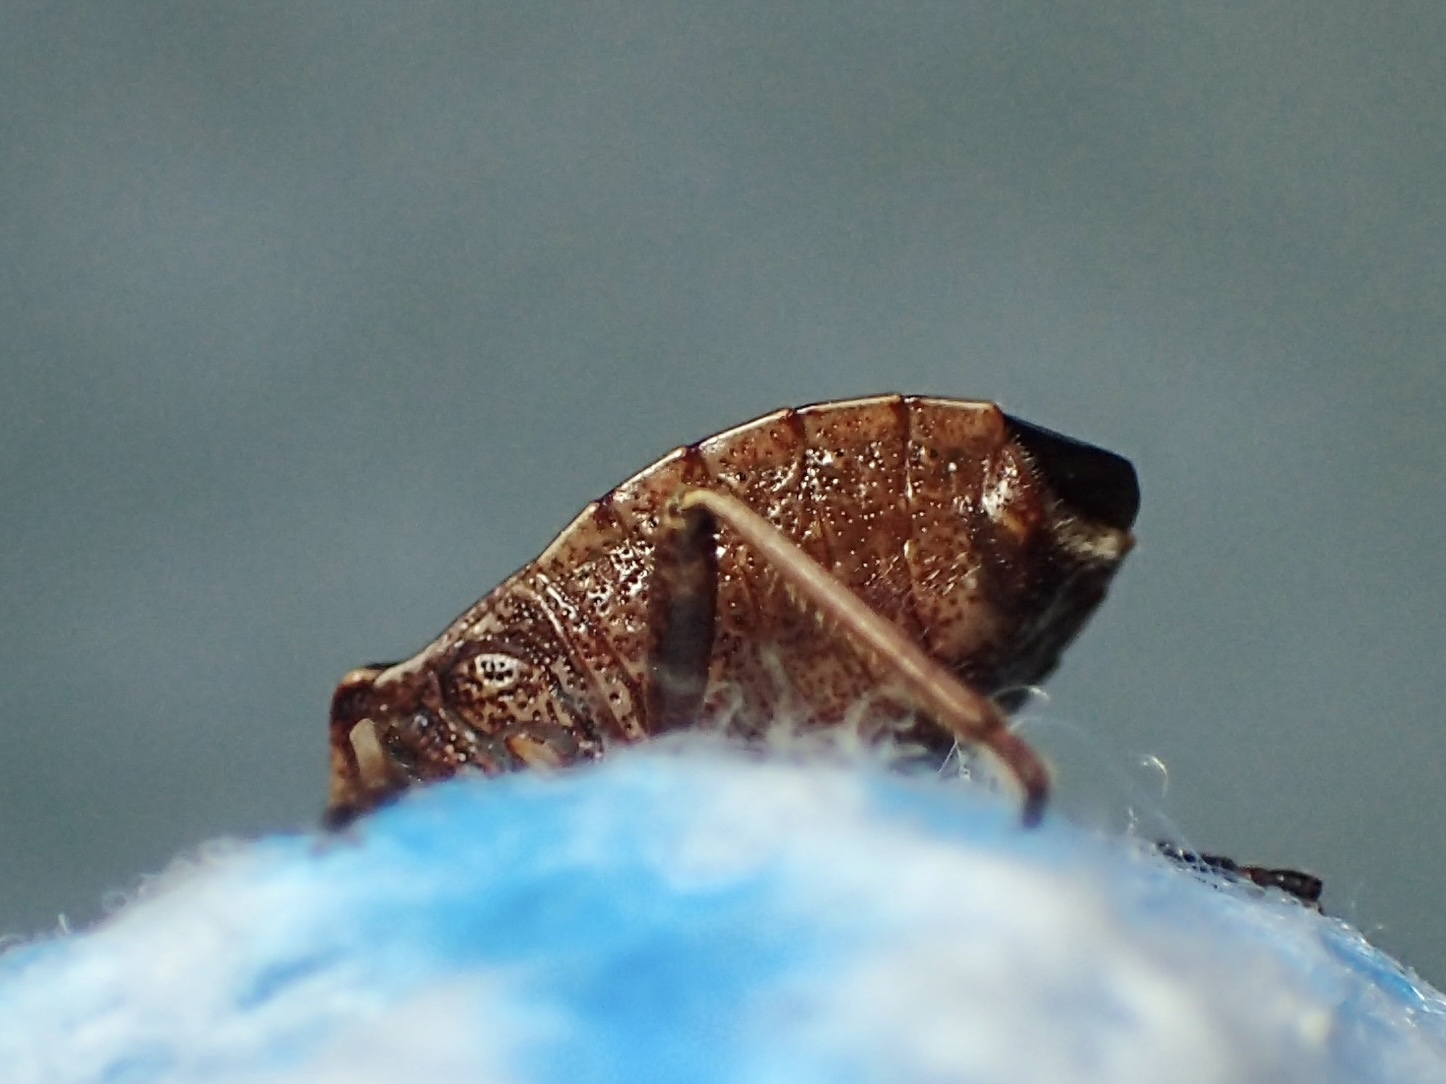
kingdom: Animalia
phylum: Arthropoda
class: Insecta
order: Hemiptera
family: Pentatomidae
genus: Cermatulus
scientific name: Cermatulus nasalis
